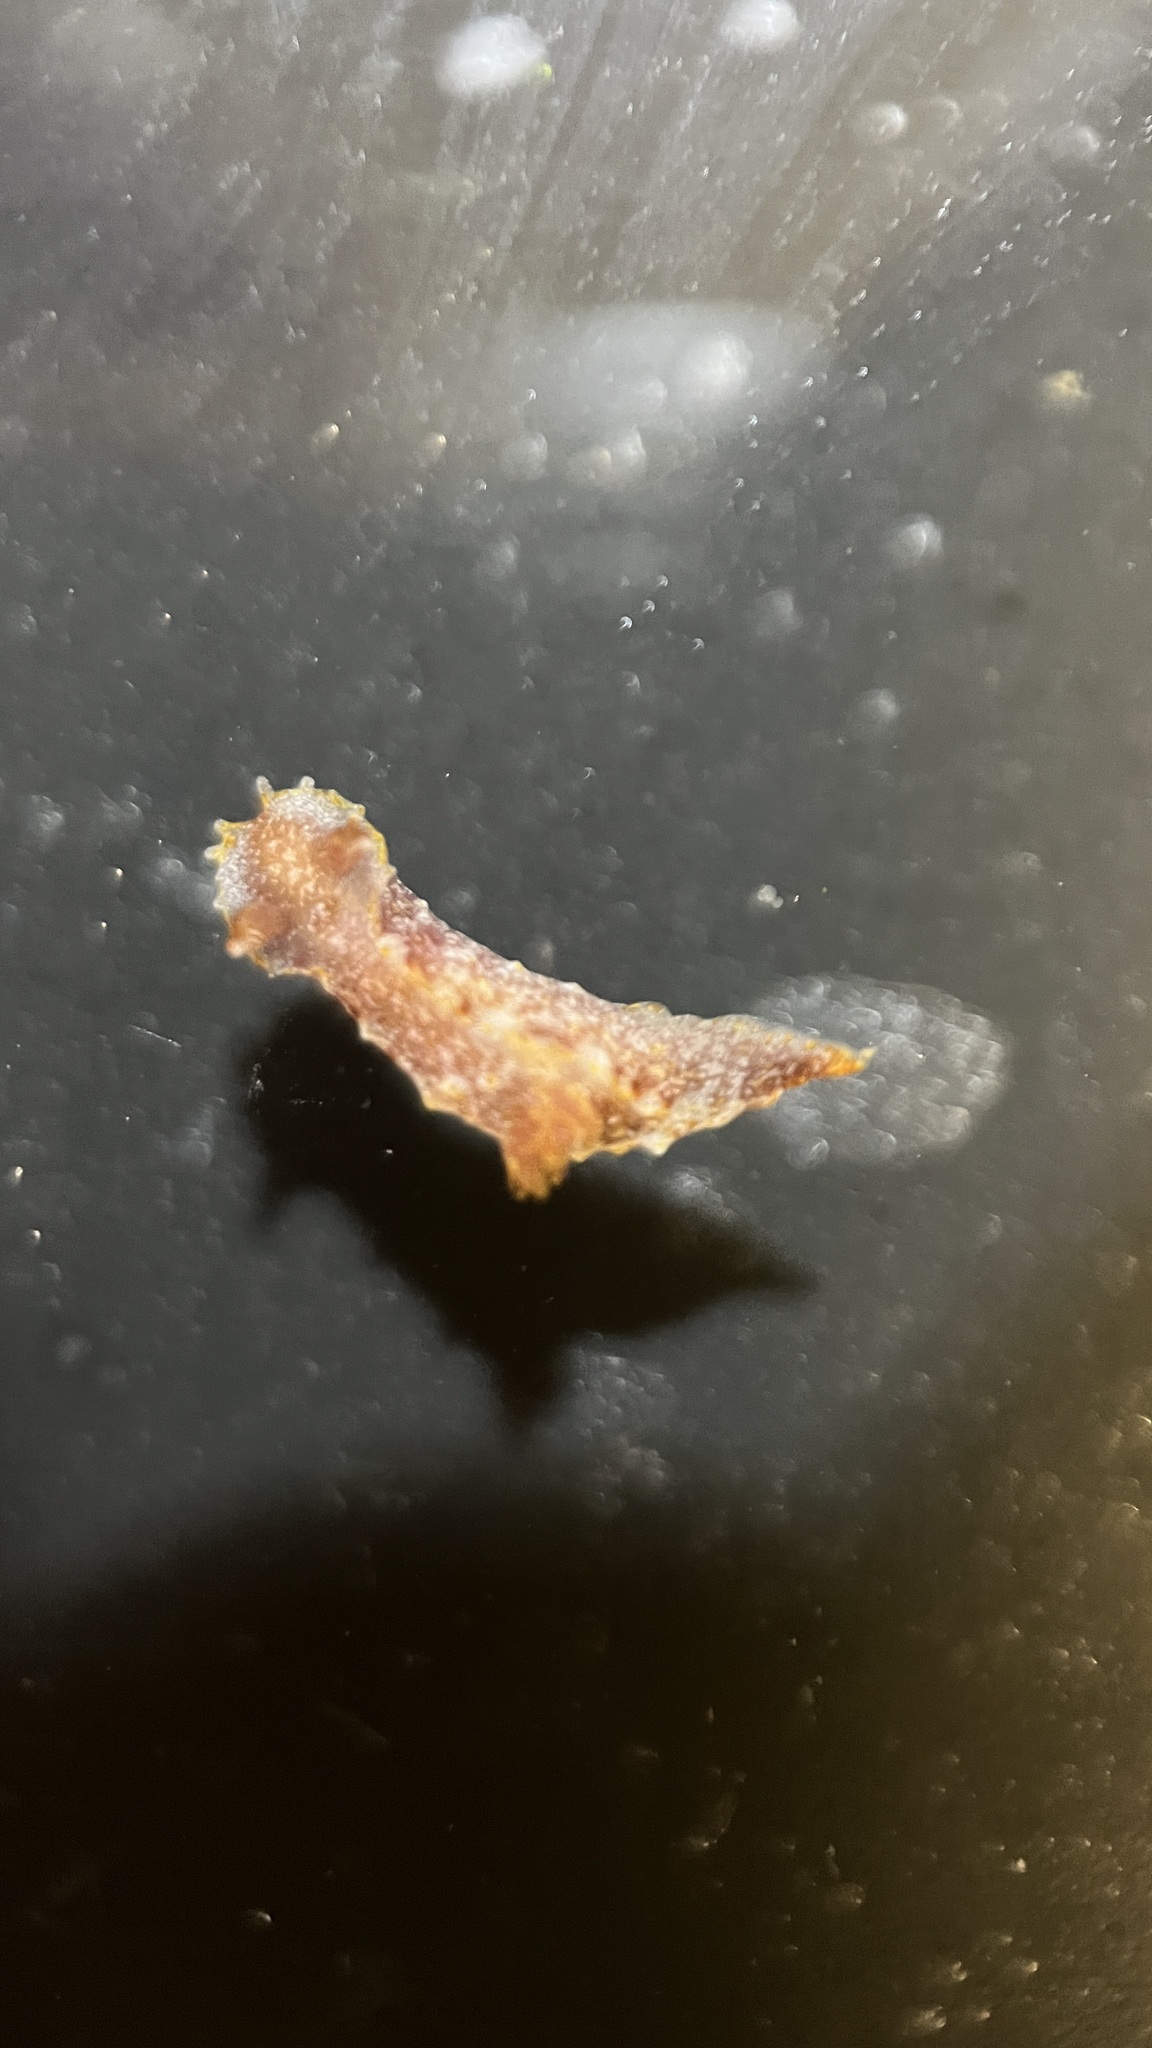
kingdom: Animalia
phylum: Mollusca
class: Gastropoda
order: Nudibranchia
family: Polyceridae
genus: Polycera
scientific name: Polycera parvula
